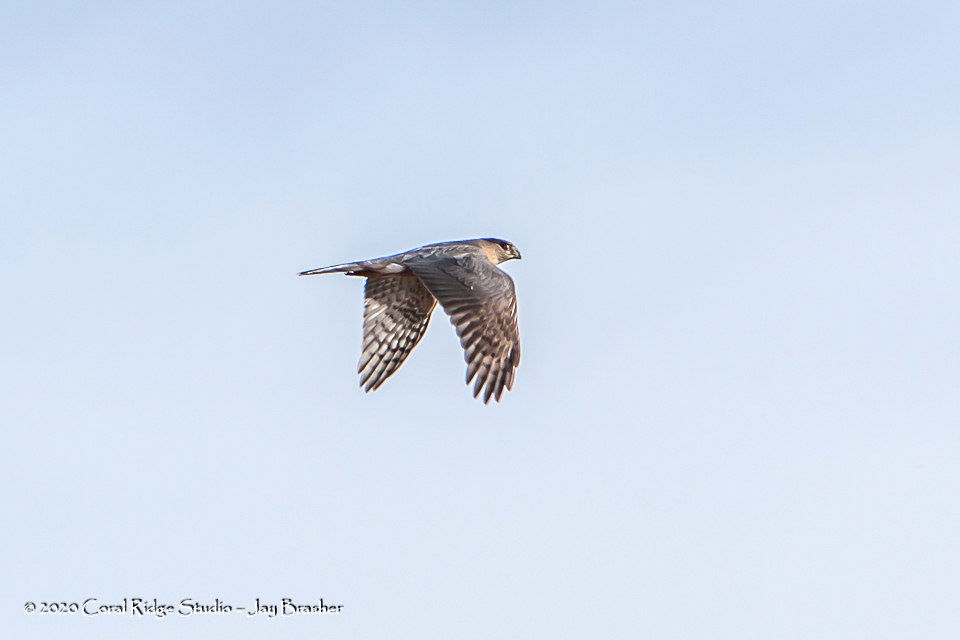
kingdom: Animalia
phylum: Chordata
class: Aves
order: Accipitriformes
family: Accipitridae
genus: Accipiter
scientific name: Accipiter cooperii
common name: Cooper's hawk
